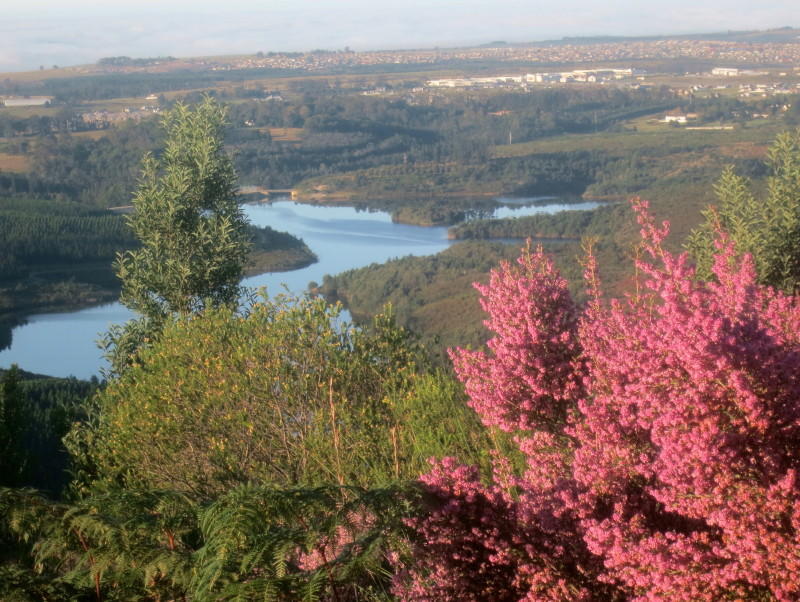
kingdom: Plantae
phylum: Tracheophyta
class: Magnoliopsida
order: Ericales
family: Ericaceae
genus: Erica
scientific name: Erica sparsa
